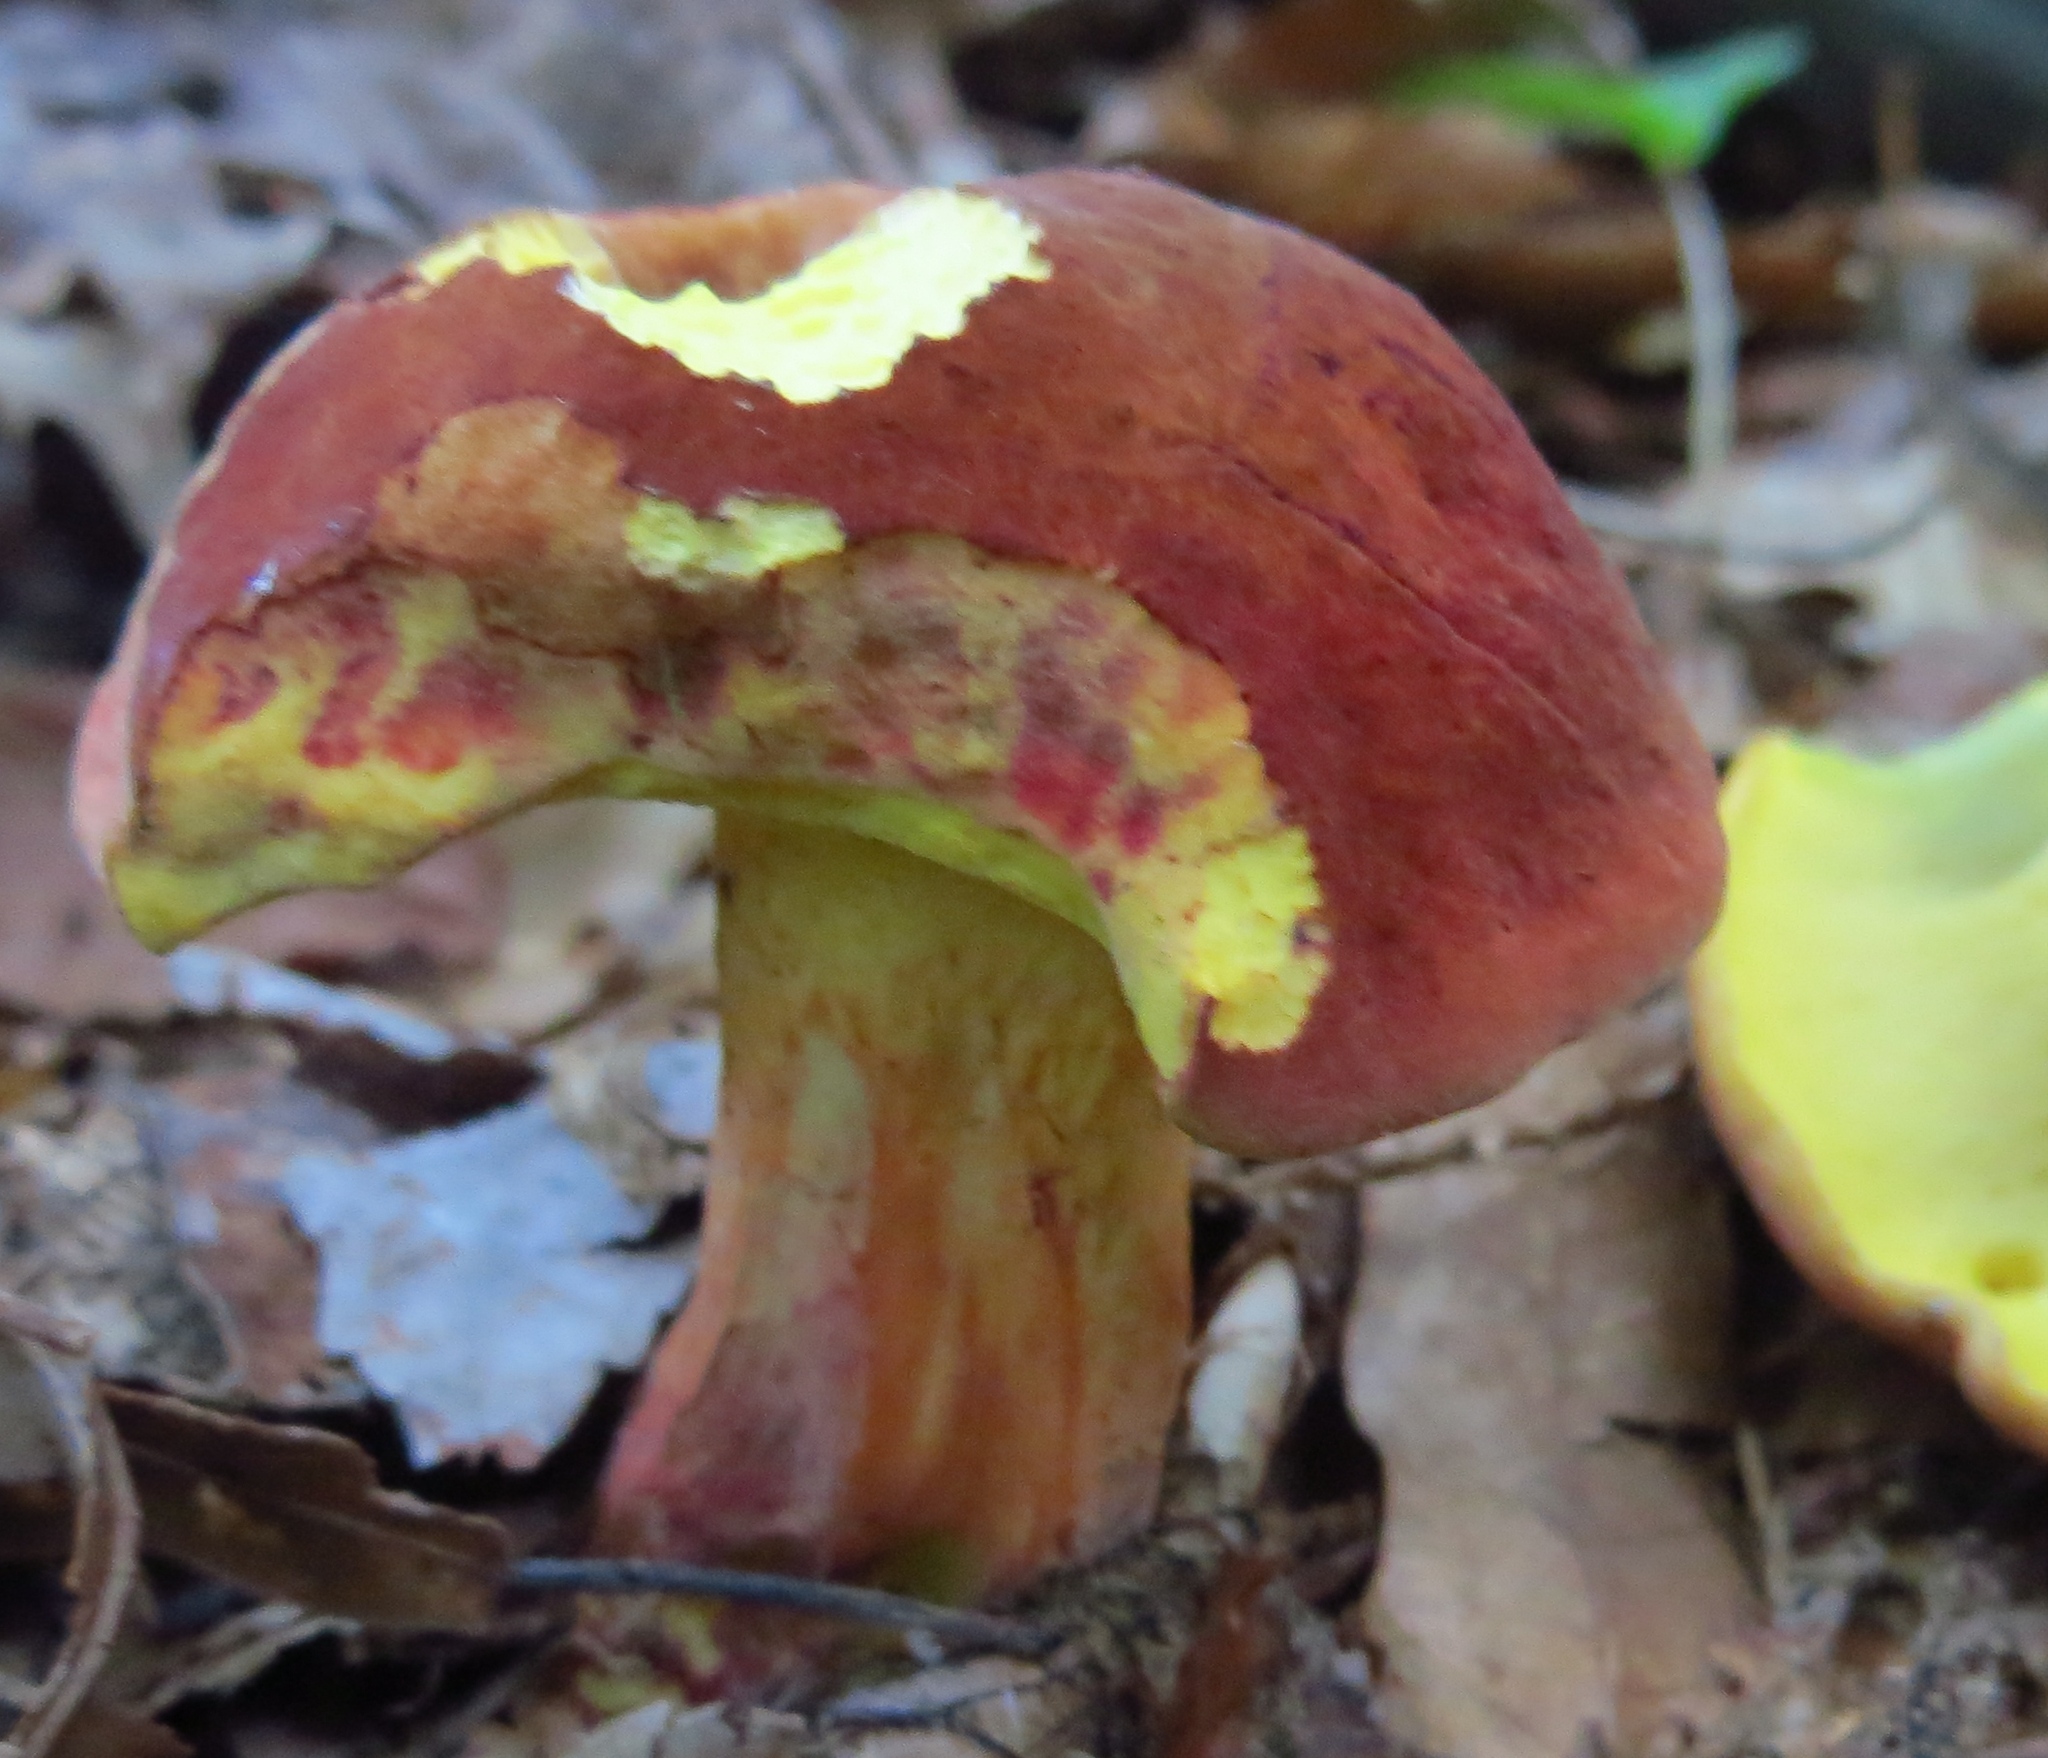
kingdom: Fungi
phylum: Basidiomycota
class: Agaricomycetes
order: Boletales
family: Boletaceae
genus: Baorangia
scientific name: Baorangia bicolor
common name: Two-colored bolete
